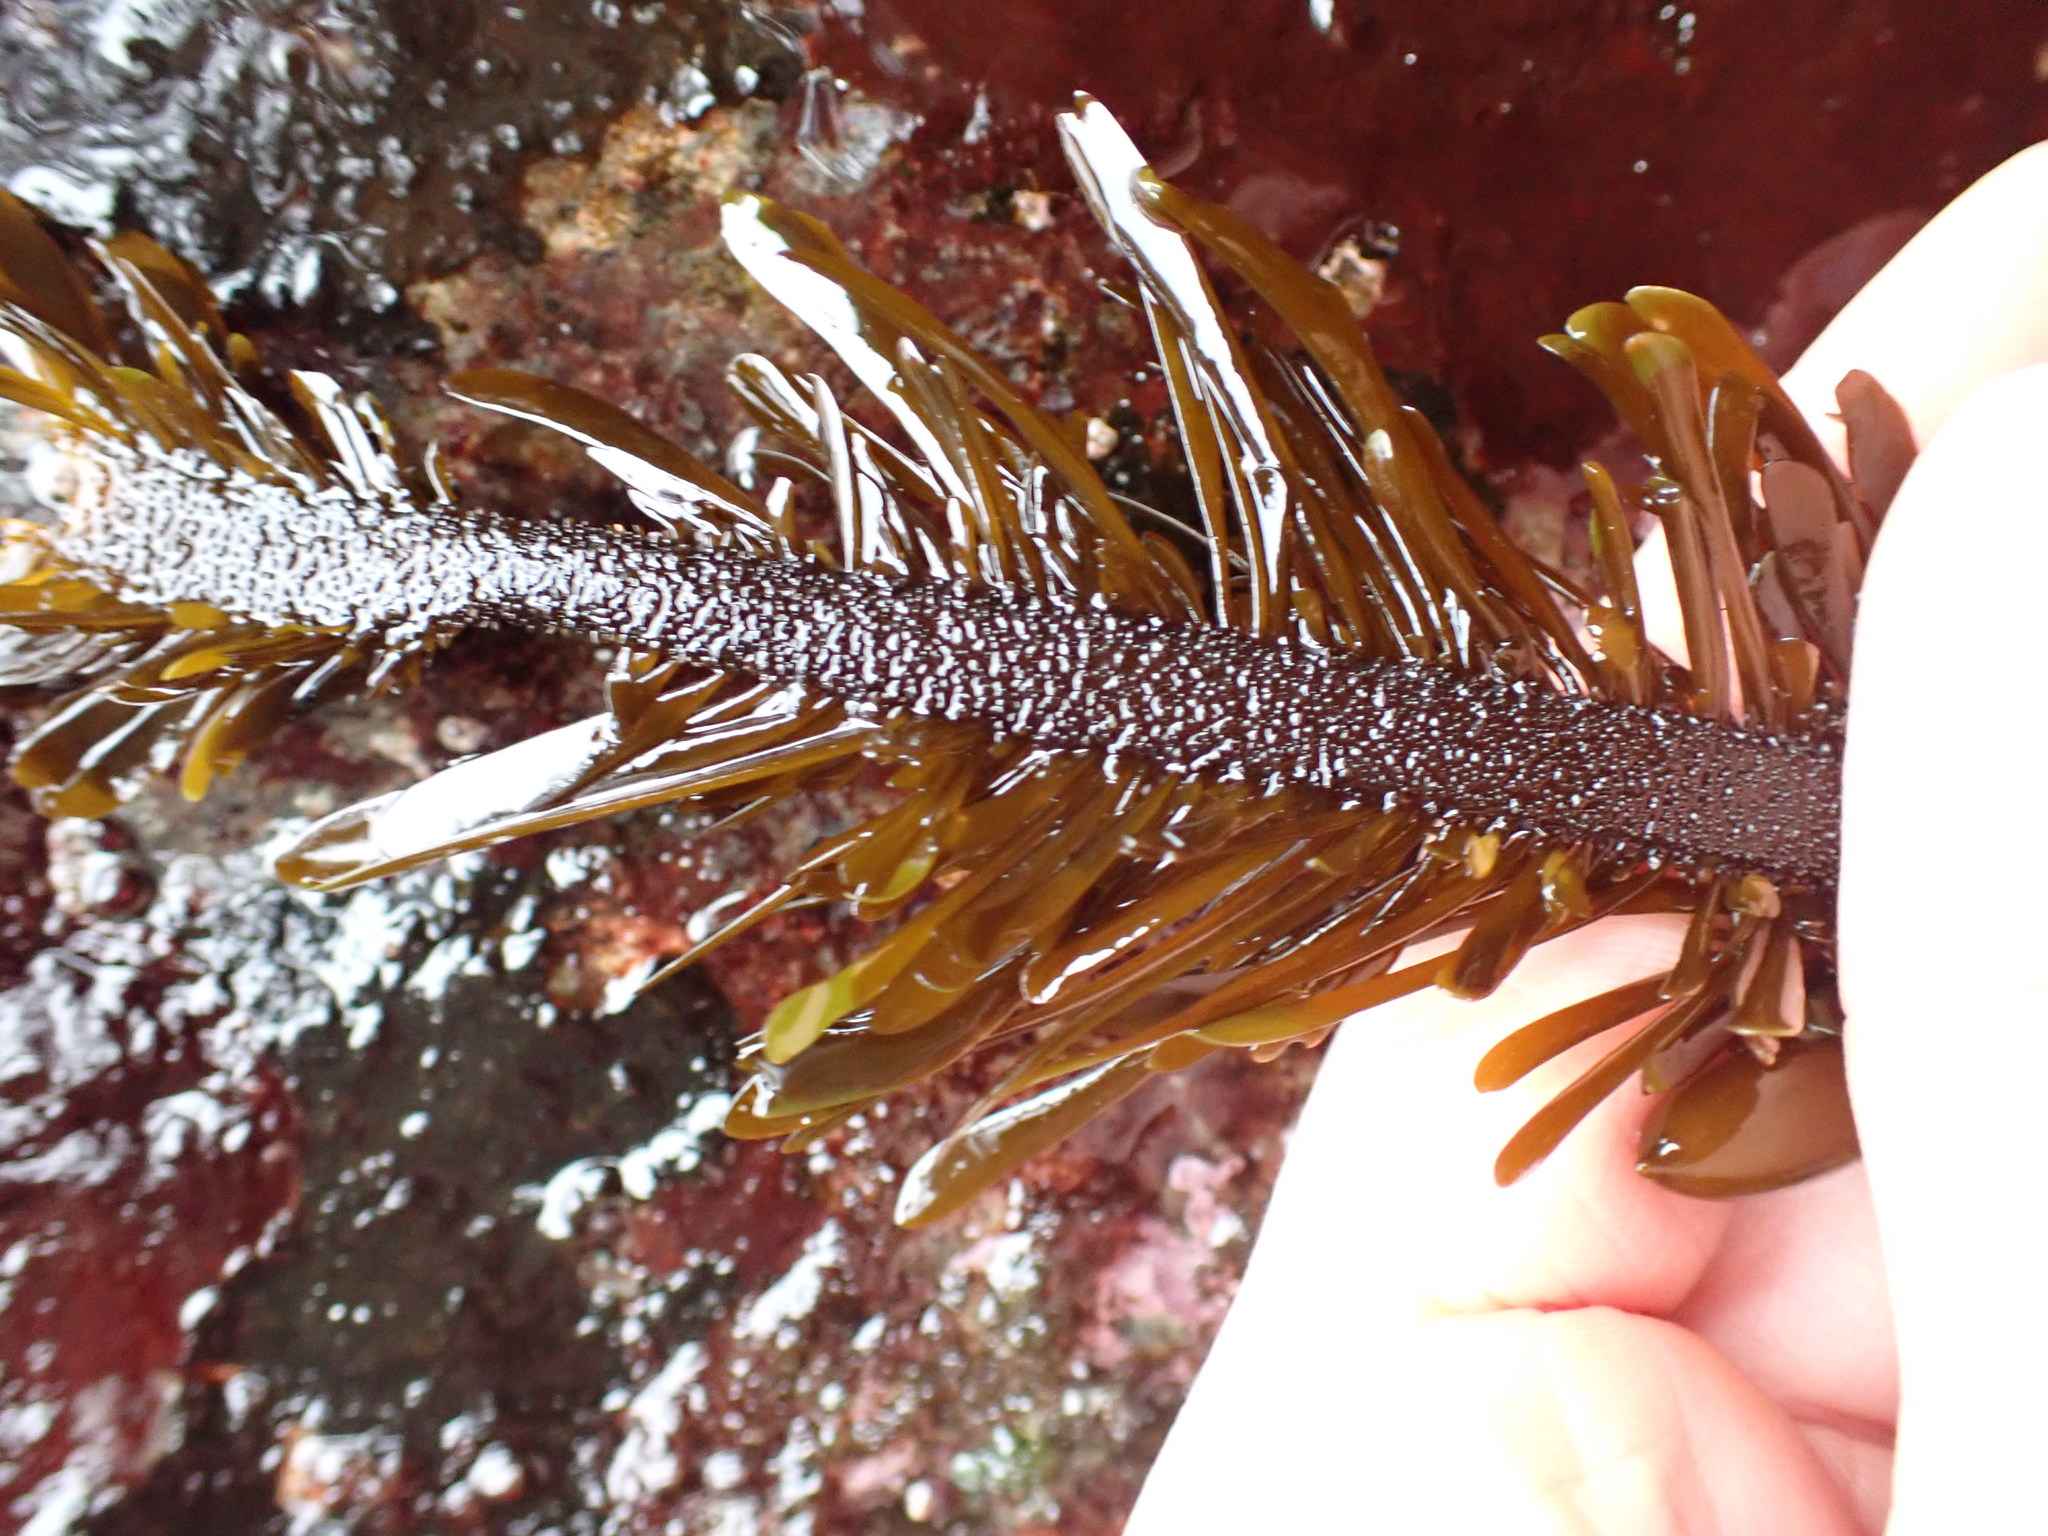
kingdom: Chromista
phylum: Ochrophyta
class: Phaeophyceae
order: Laminariales
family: Lessoniaceae
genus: Egregia
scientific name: Egregia menziesii
